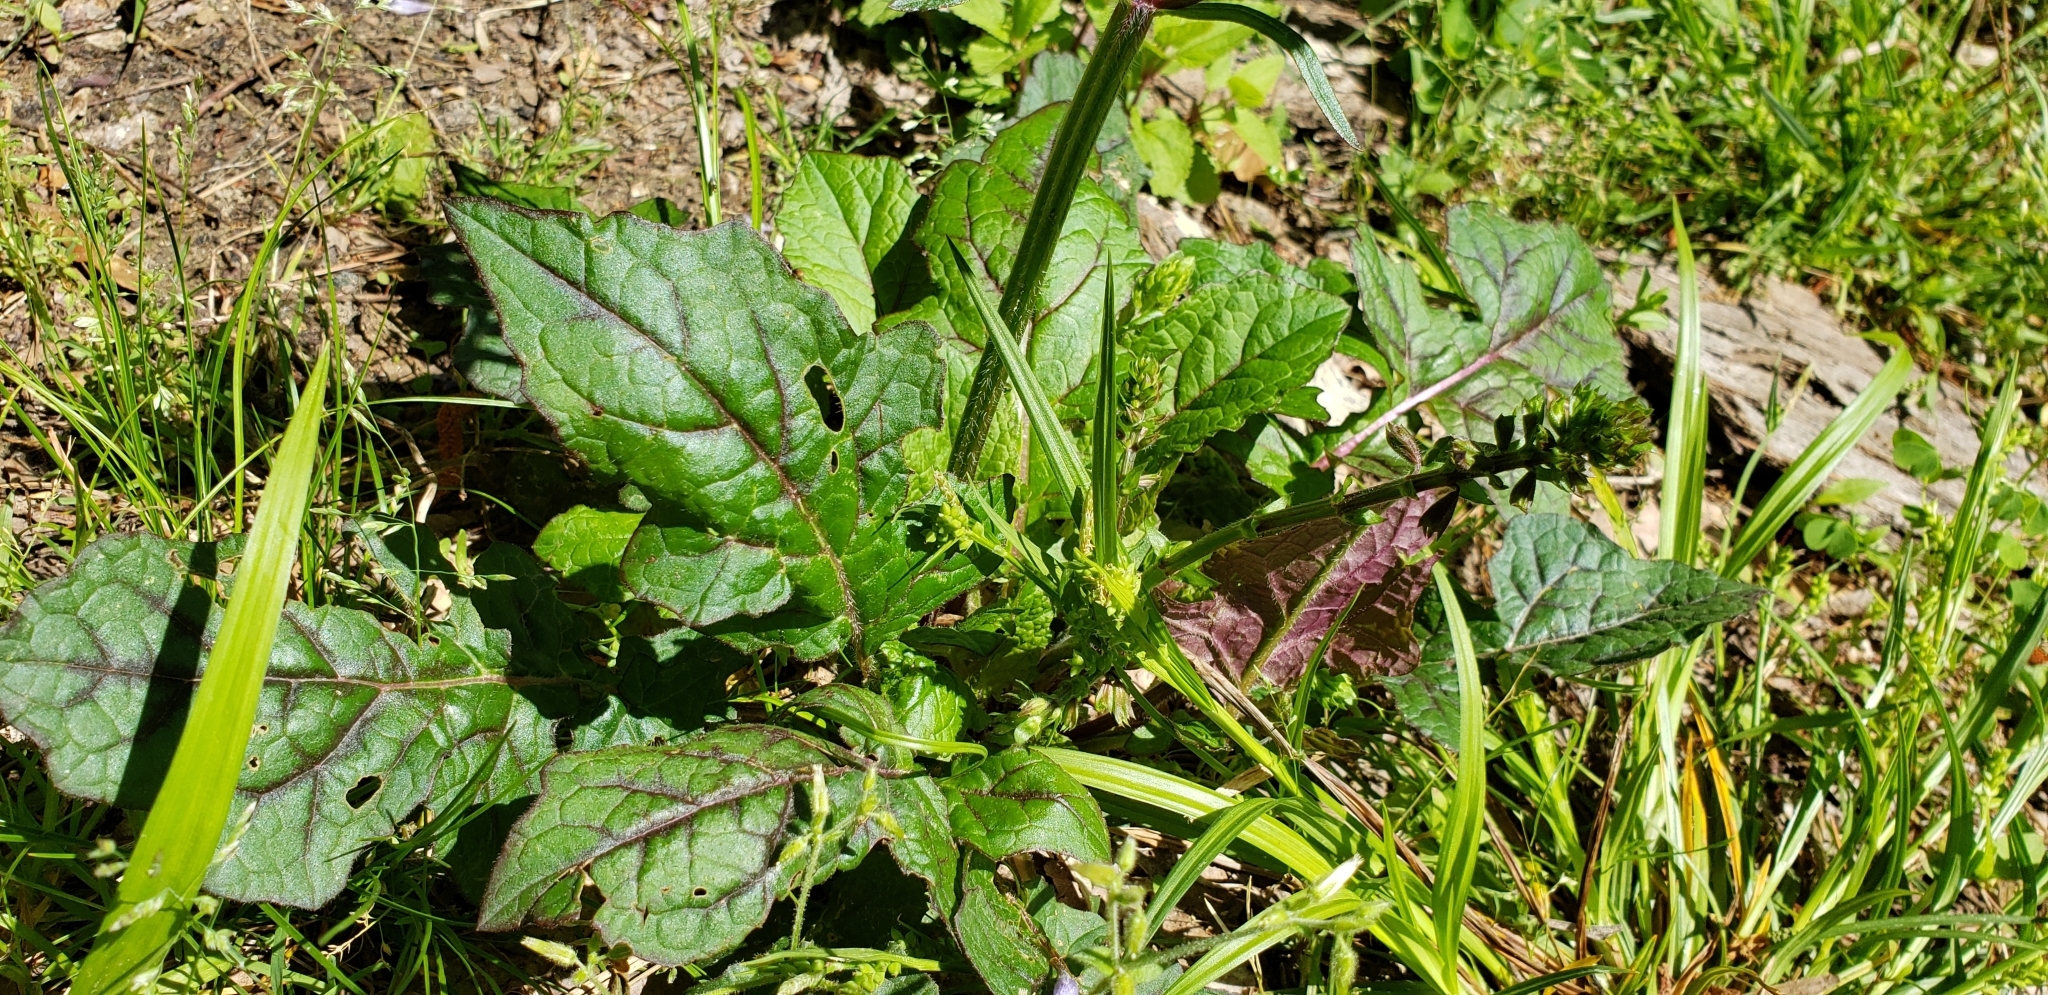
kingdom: Plantae
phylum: Tracheophyta
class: Magnoliopsida
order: Lamiales
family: Lamiaceae
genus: Salvia
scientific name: Salvia lyrata
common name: Cancerweed
